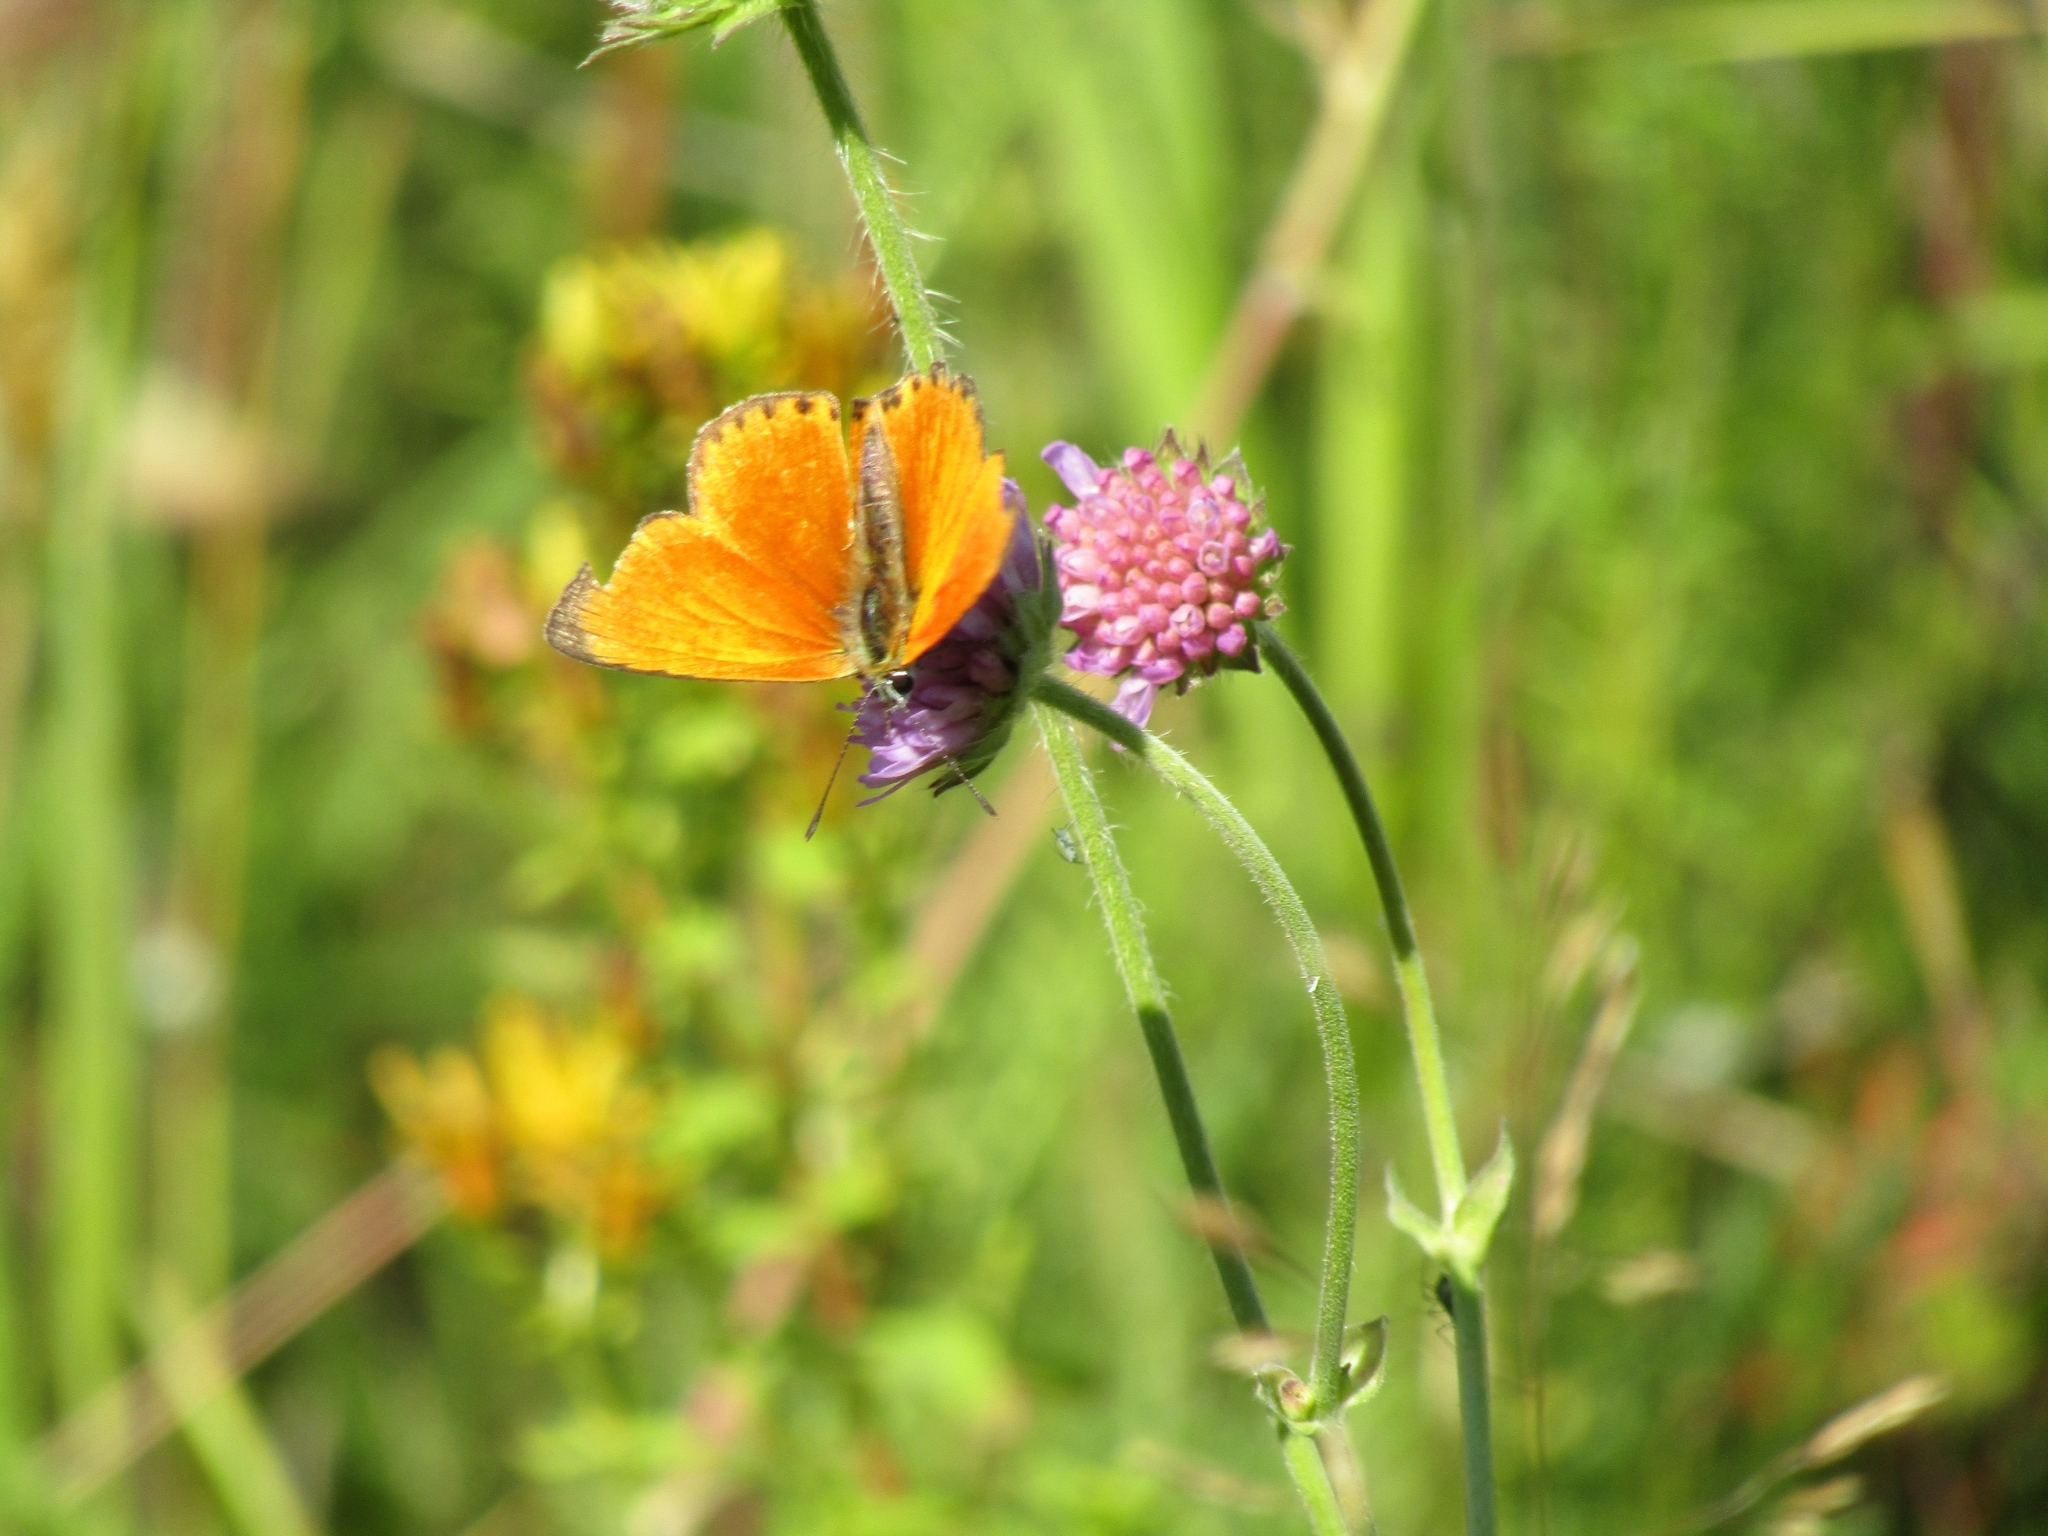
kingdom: Animalia
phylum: Arthropoda
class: Insecta
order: Lepidoptera
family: Lycaenidae
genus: Lycaena
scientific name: Lycaena virgaureae
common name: Scarce copper
